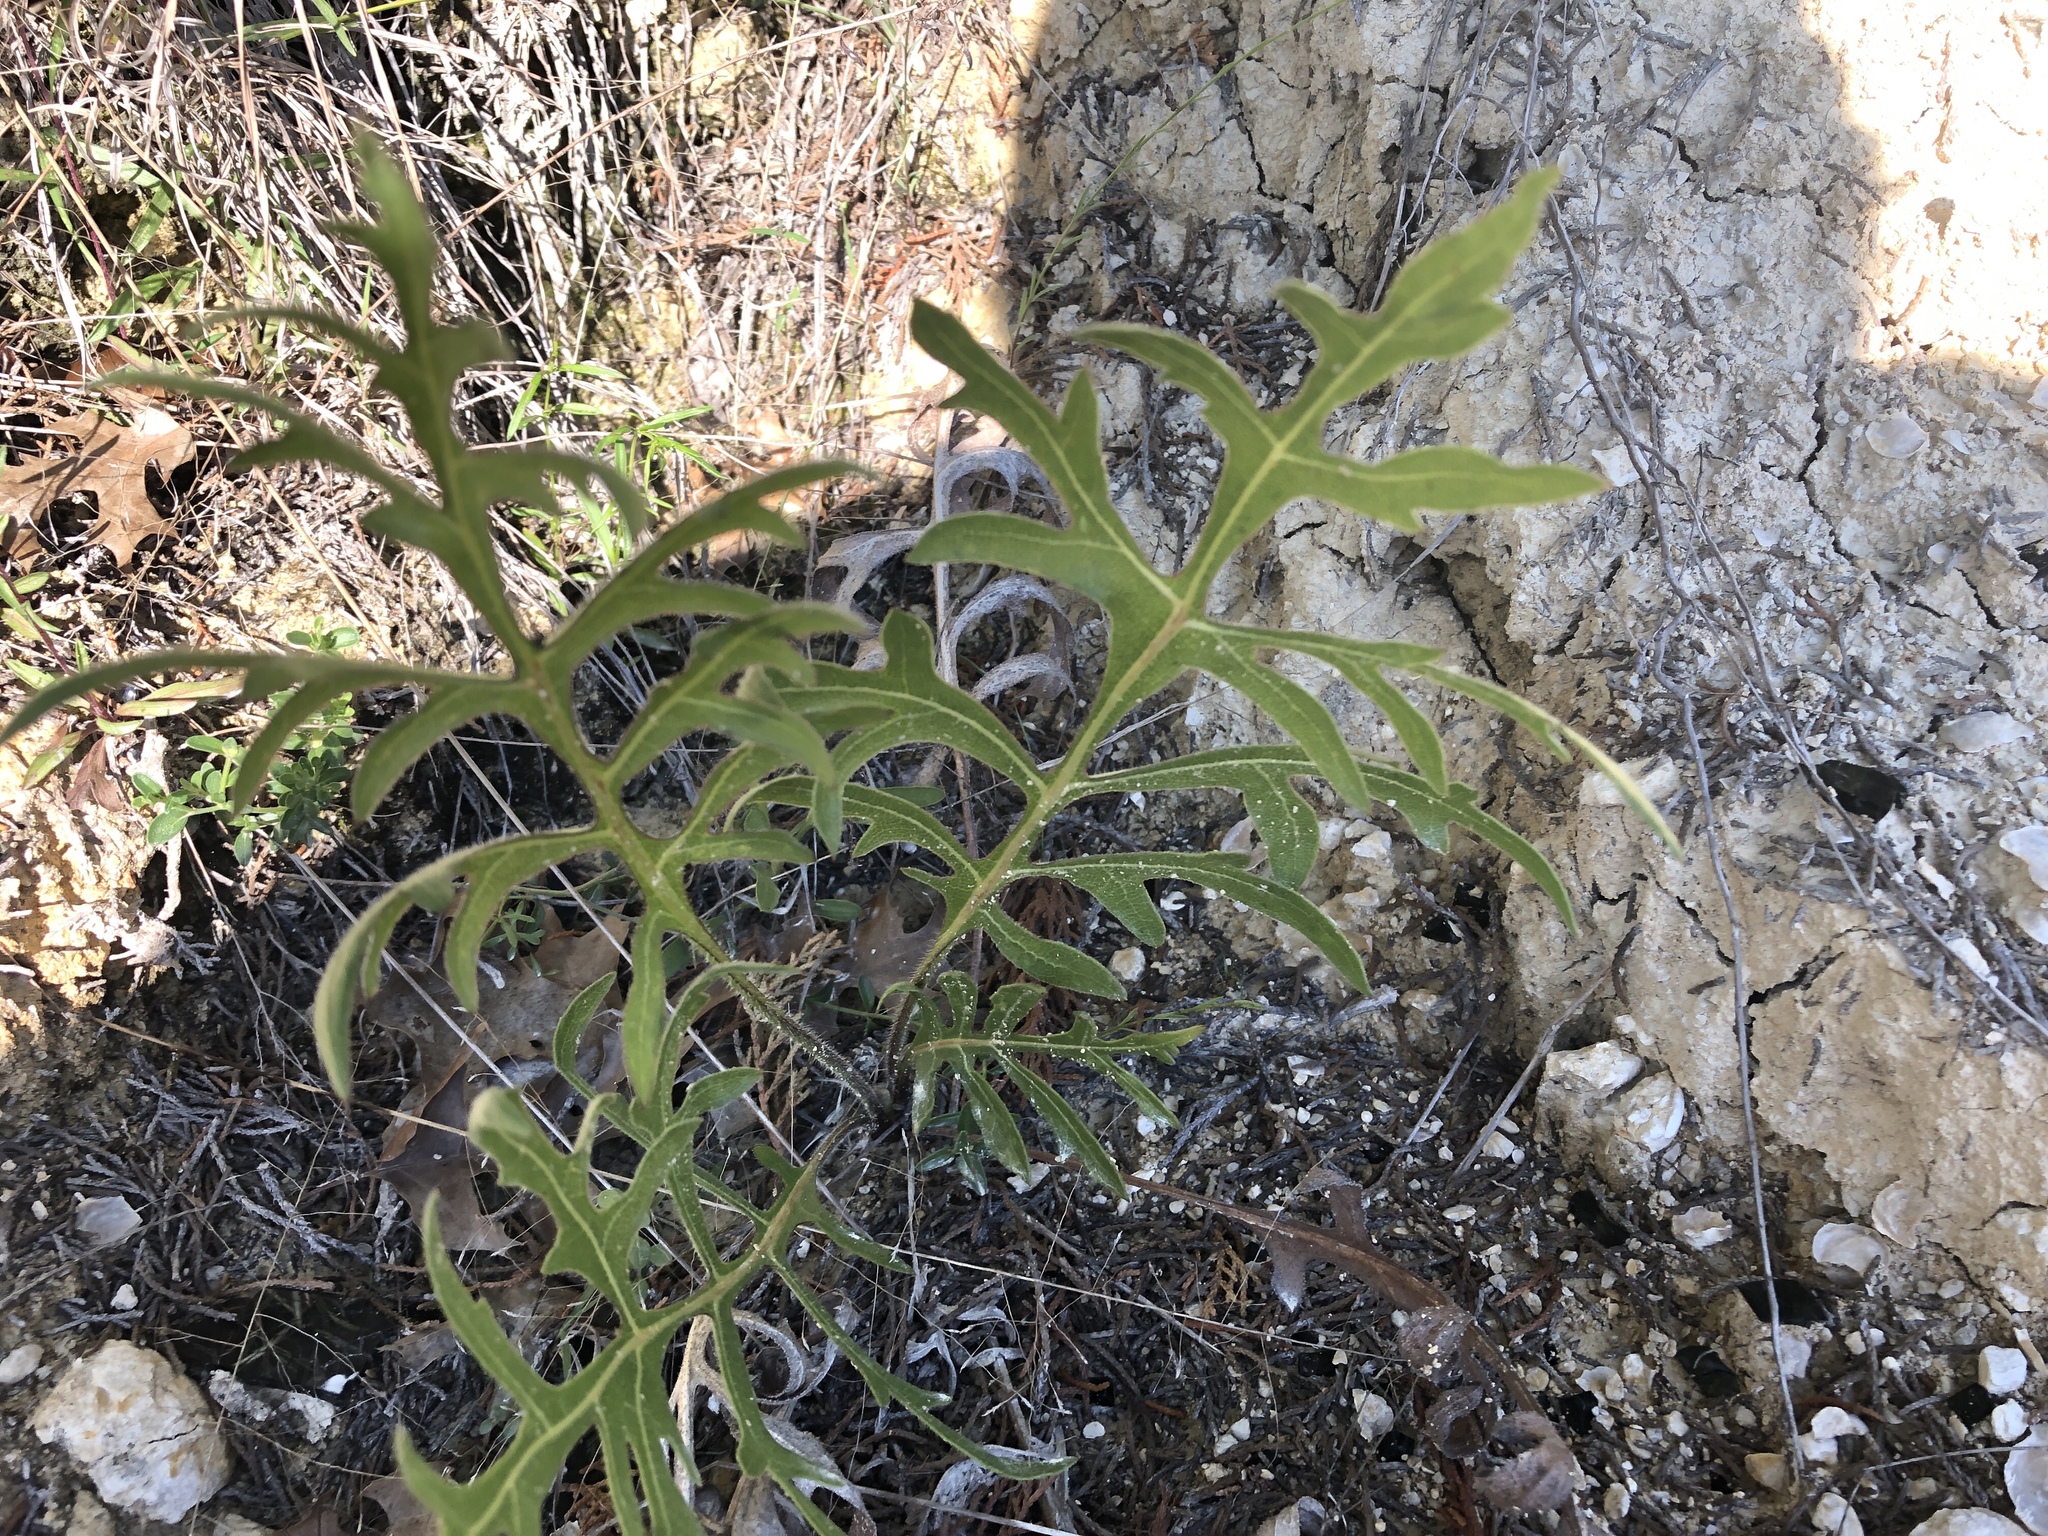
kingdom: Plantae
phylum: Tracheophyta
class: Magnoliopsida
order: Asterales
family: Asteraceae
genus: Silphium
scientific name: Silphium laciniatum
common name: Polarplant
